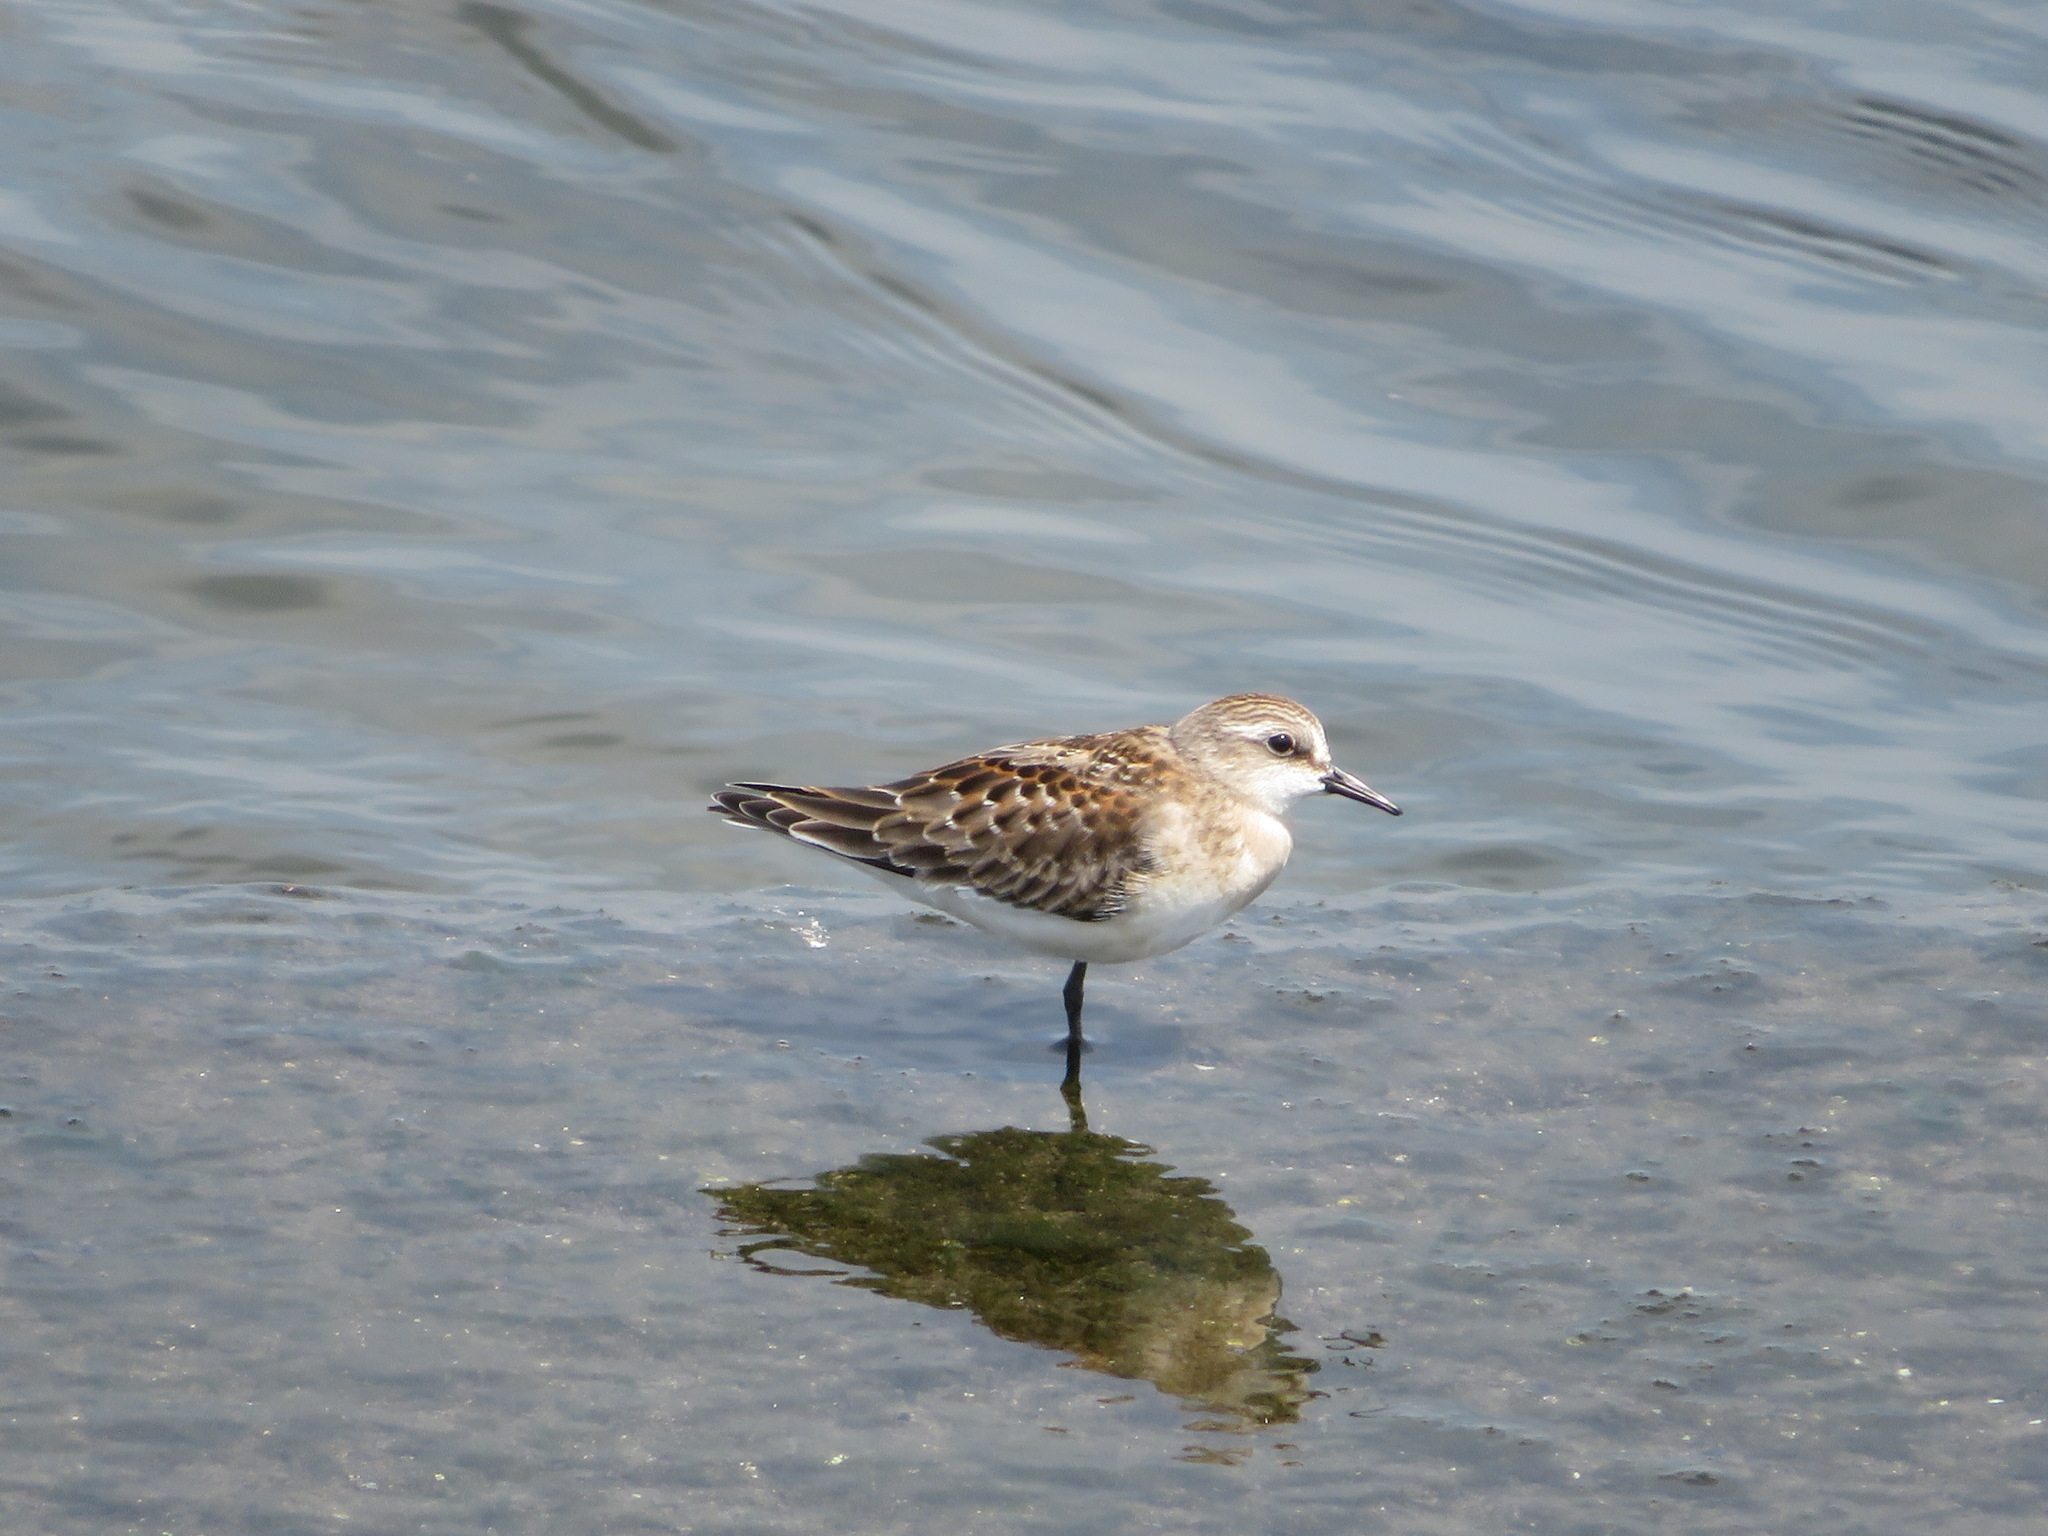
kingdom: Animalia
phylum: Chordata
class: Aves
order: Charadriiformes
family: Scolopacidae
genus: Calidris
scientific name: Calidris ruficollis
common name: Red-necked stint
